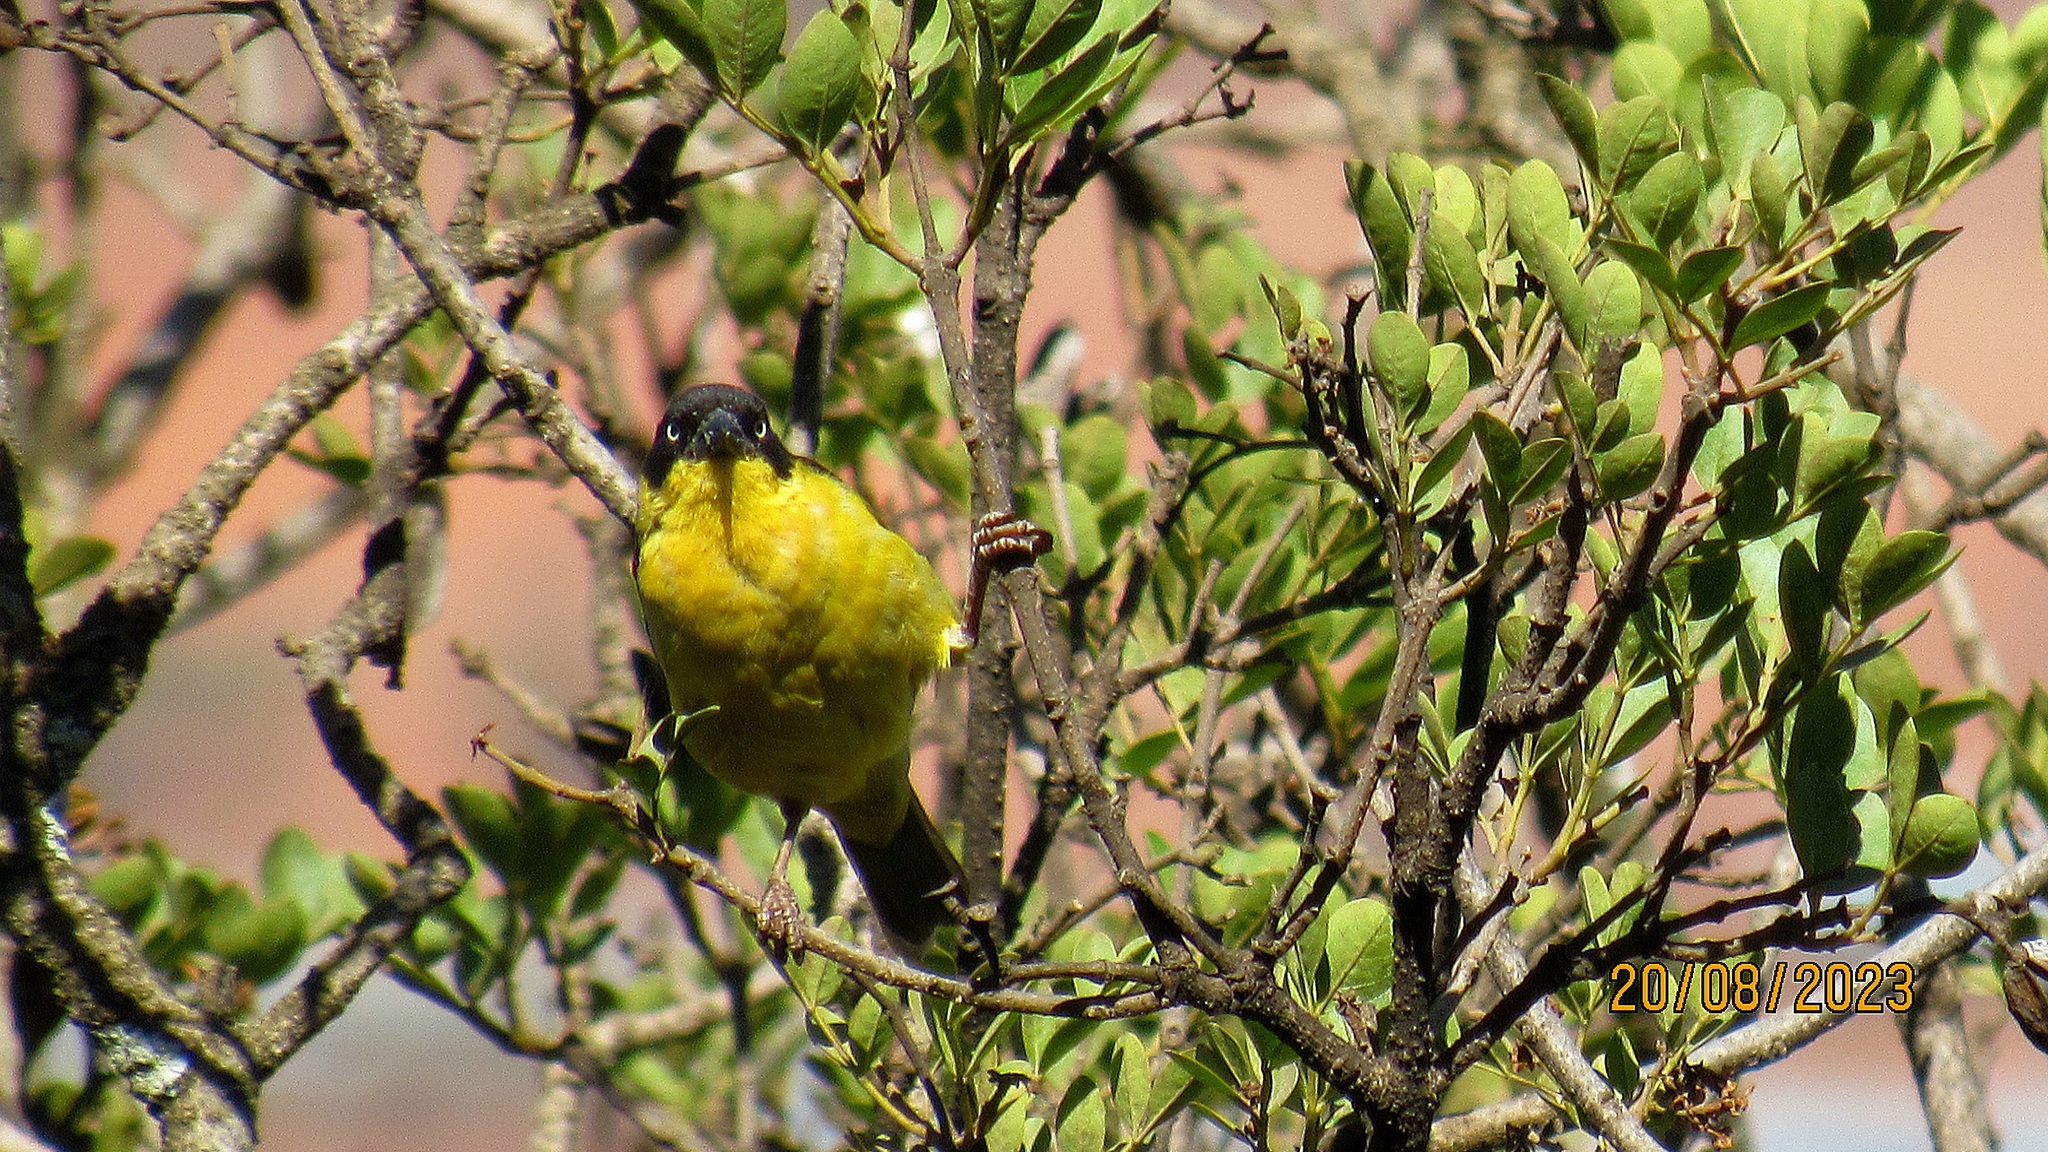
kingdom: Animalia
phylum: Chordata
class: Aves
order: Passeriformes
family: Ploceidae
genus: Ploceus
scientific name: Ploceus baglafecht
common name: Baglafecht weaver
